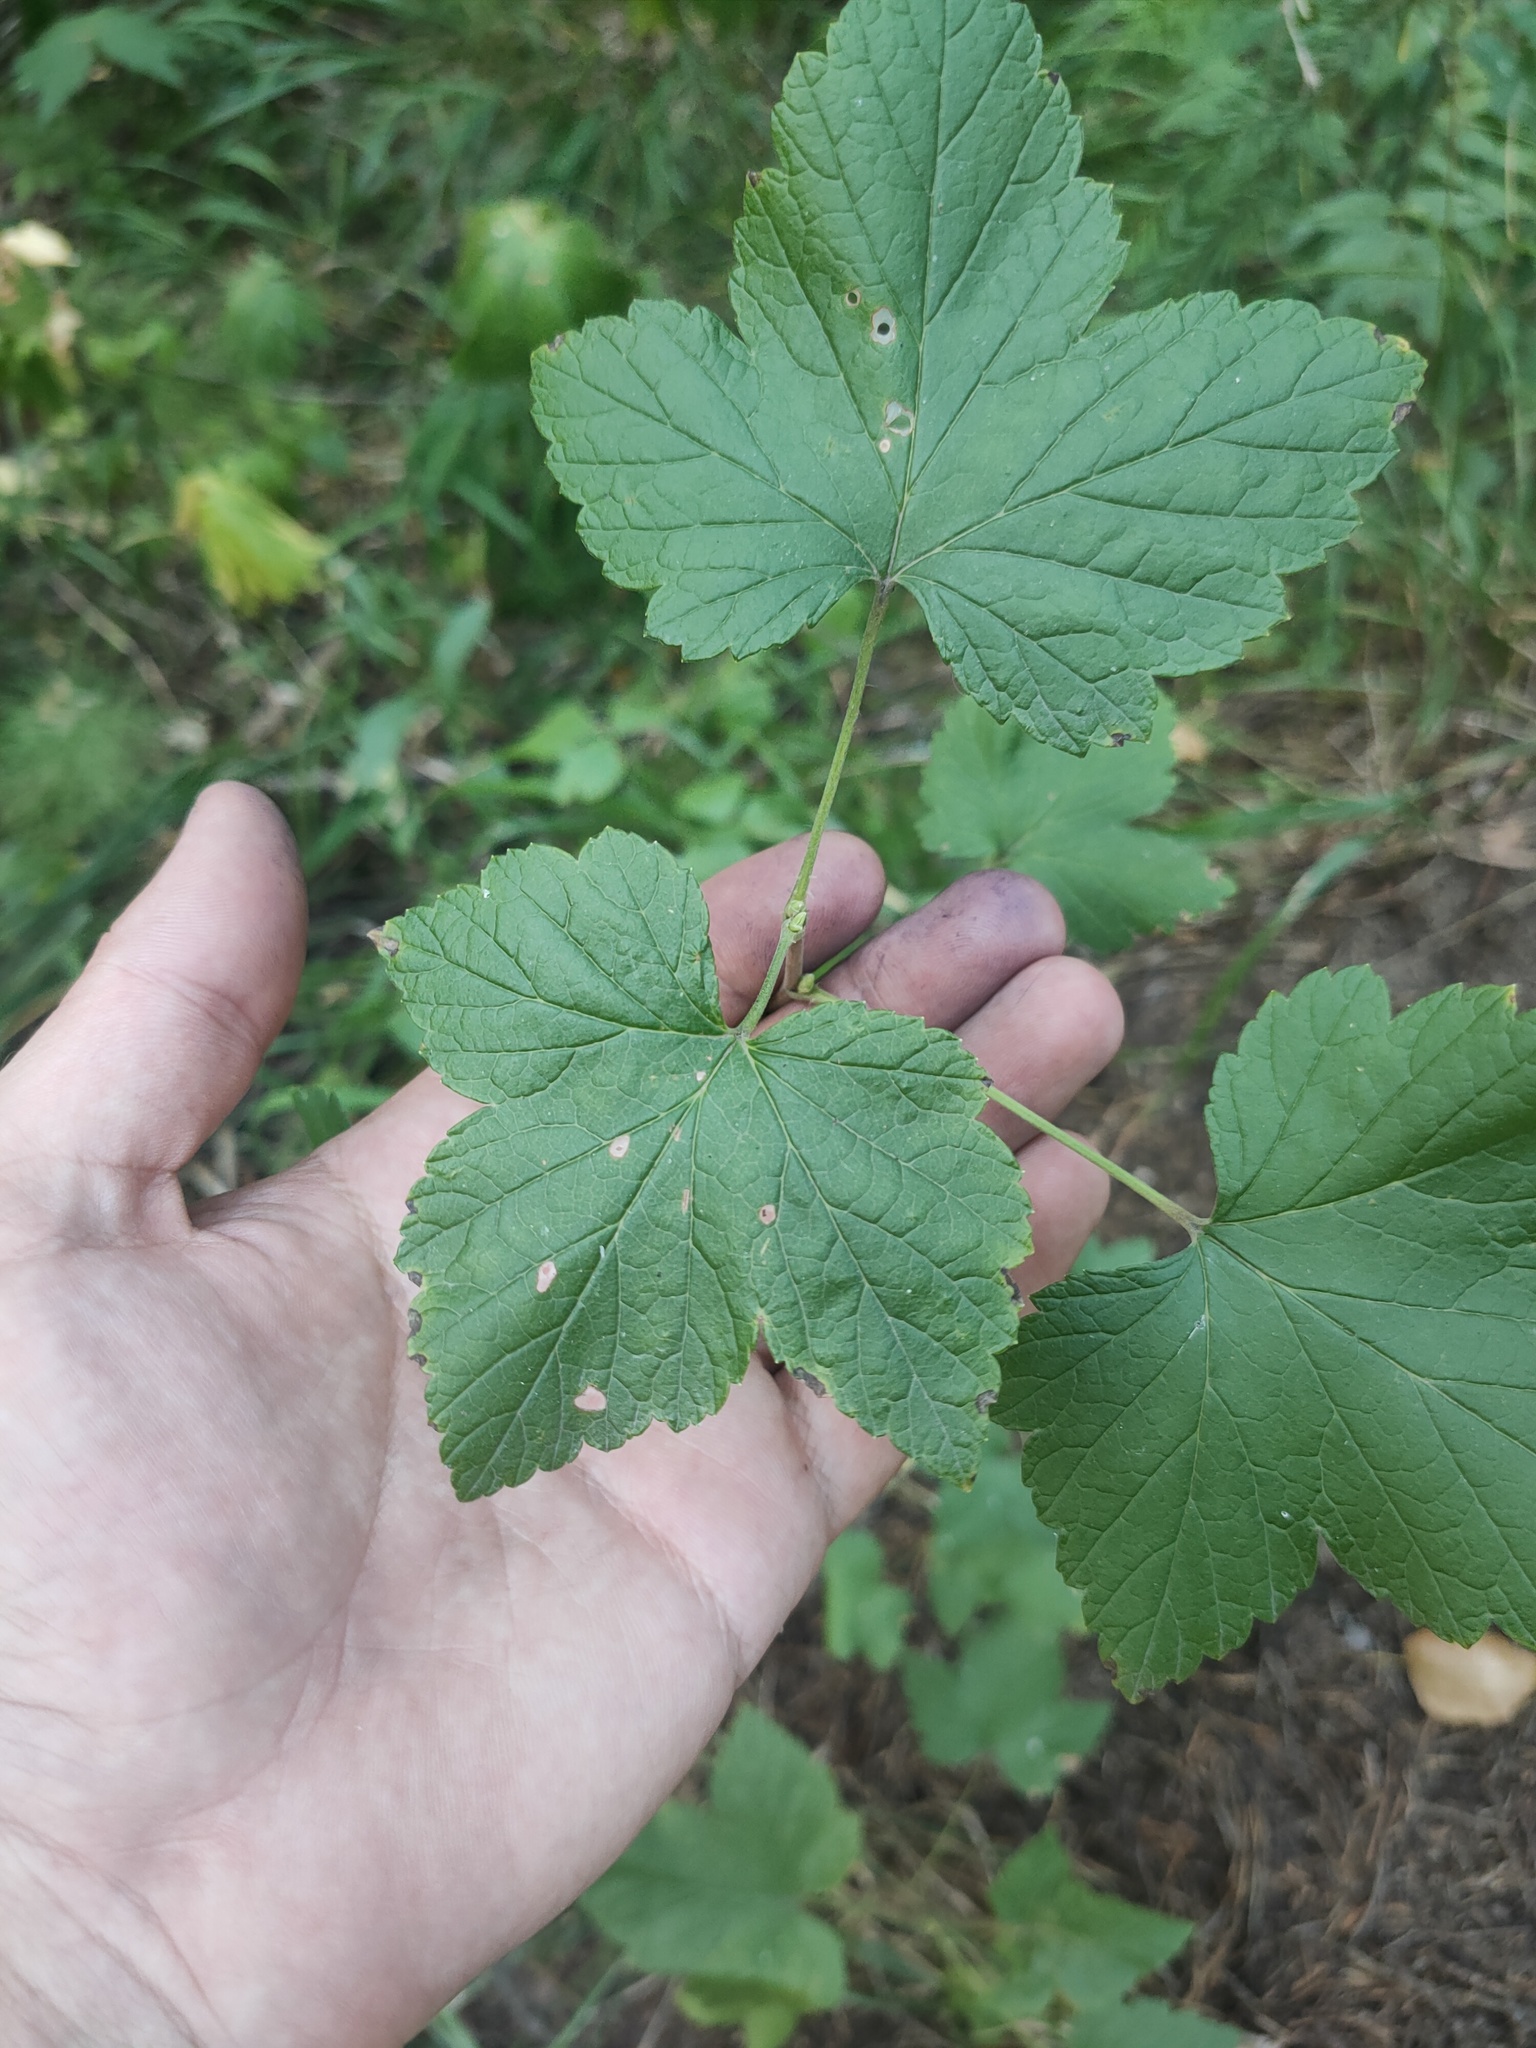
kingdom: Plantae
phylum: Tracheophyta
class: Magnoliopsida
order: Saxifragales
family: Grossulariaceae
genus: Ribes
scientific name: Ribes nigrum
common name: Black currant
